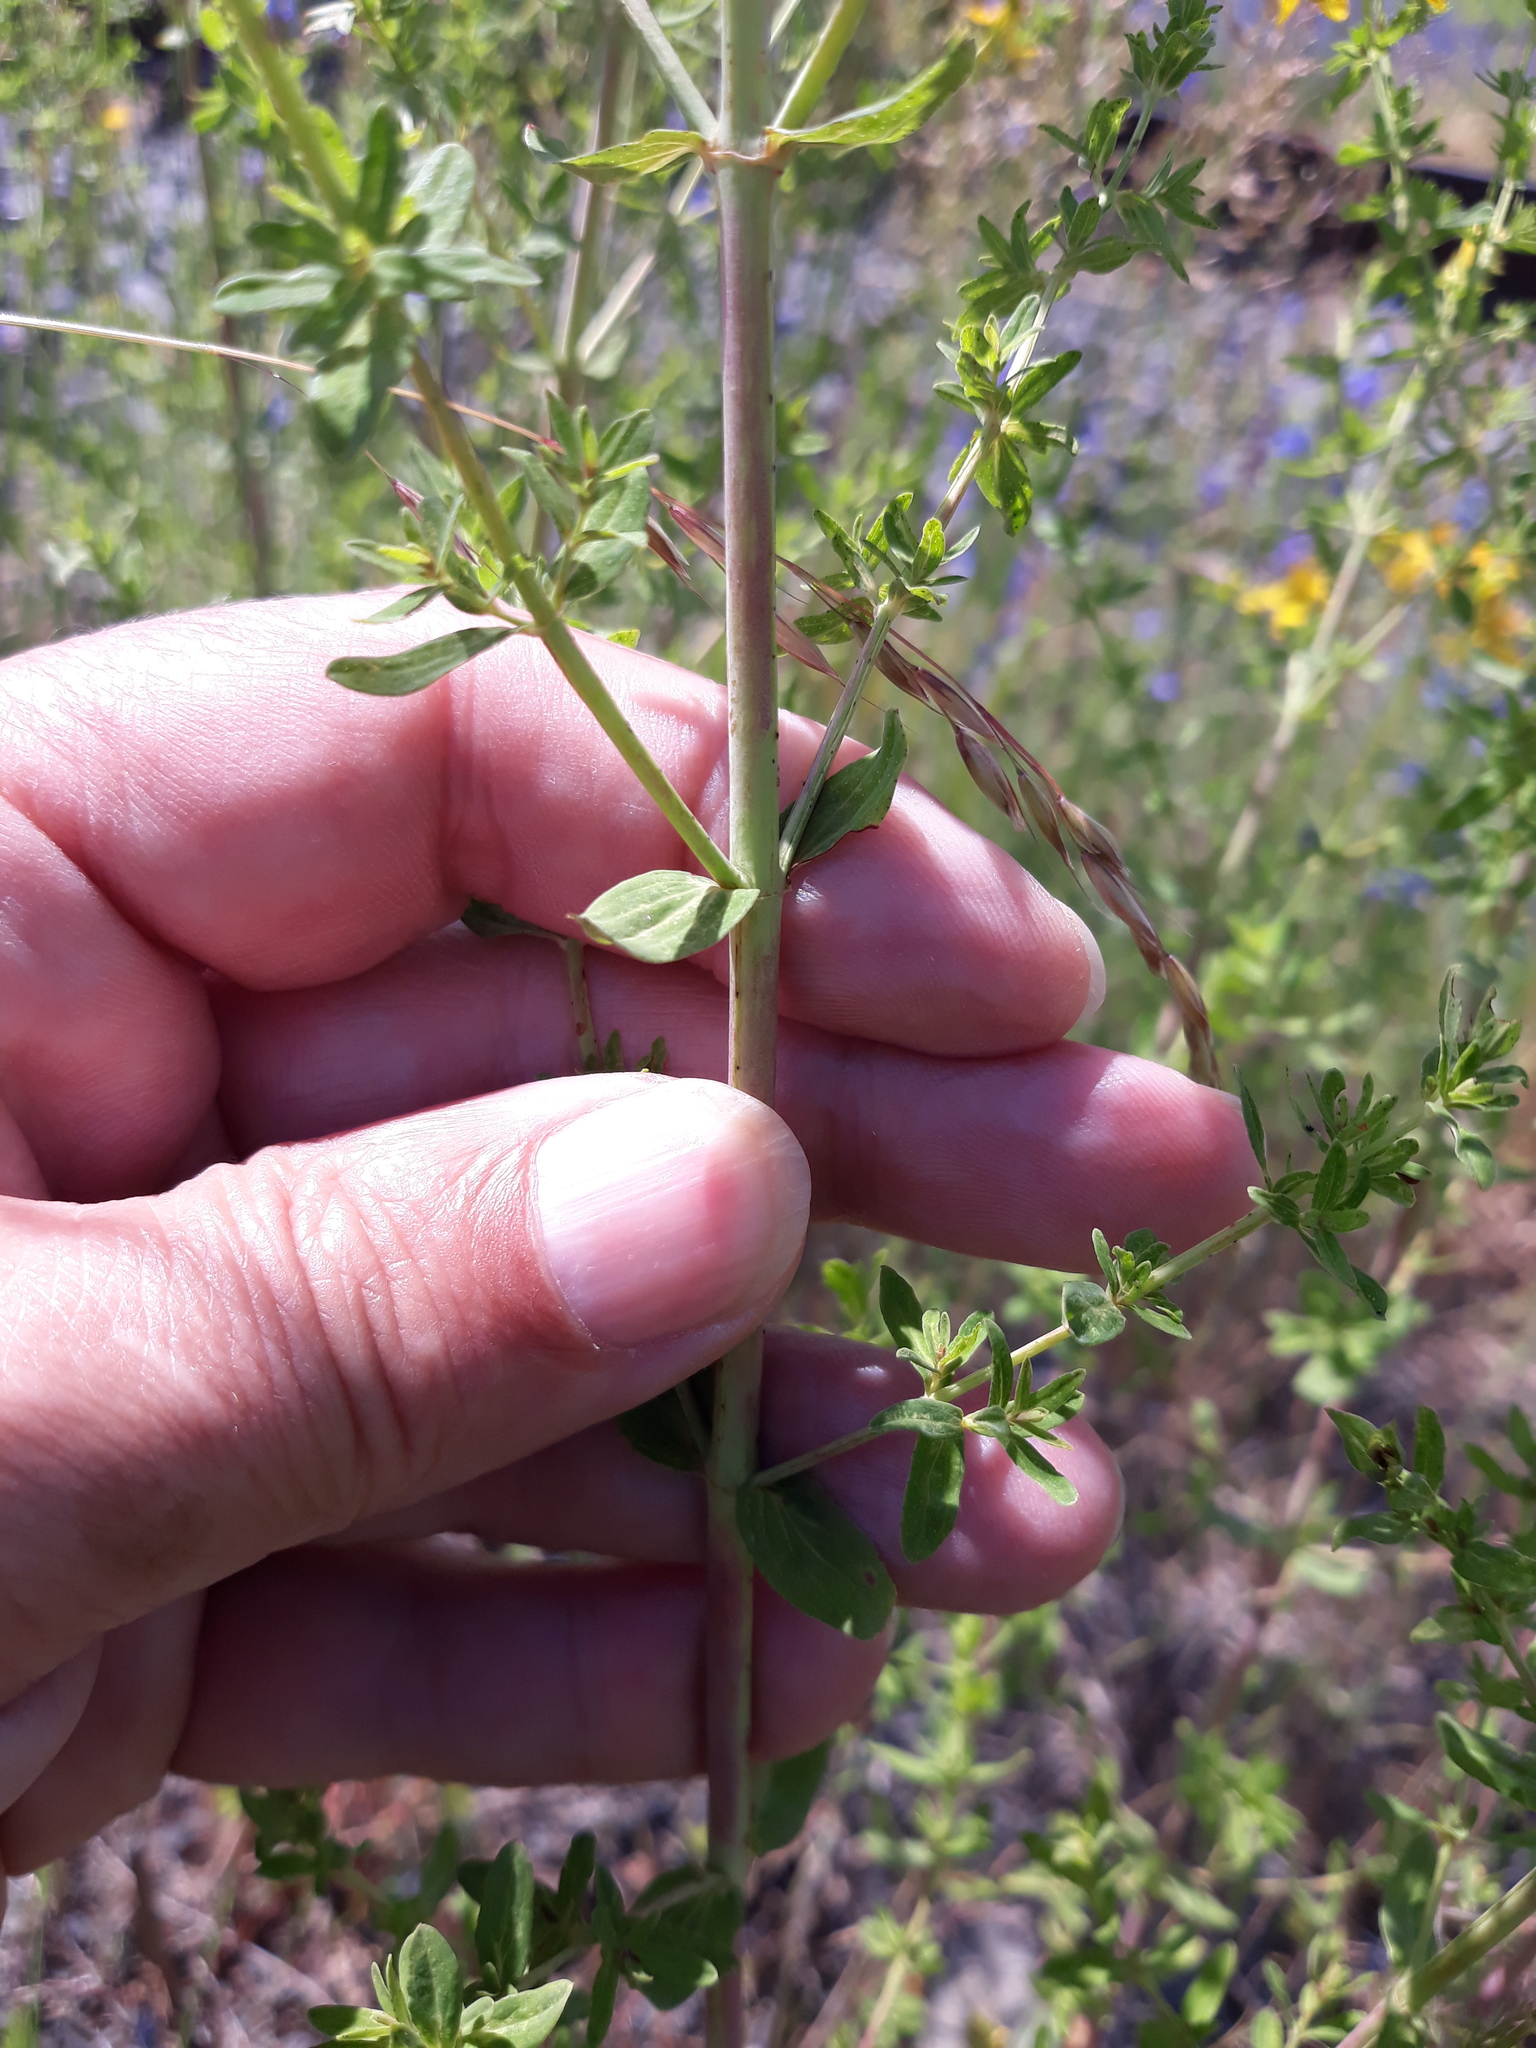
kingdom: Plantae
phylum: Tracheophyta
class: Magnoliopsida
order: Malpighiales
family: Hypericaceae
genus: Hypericum
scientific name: Hypericum perforatum
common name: Common st. johnswort
